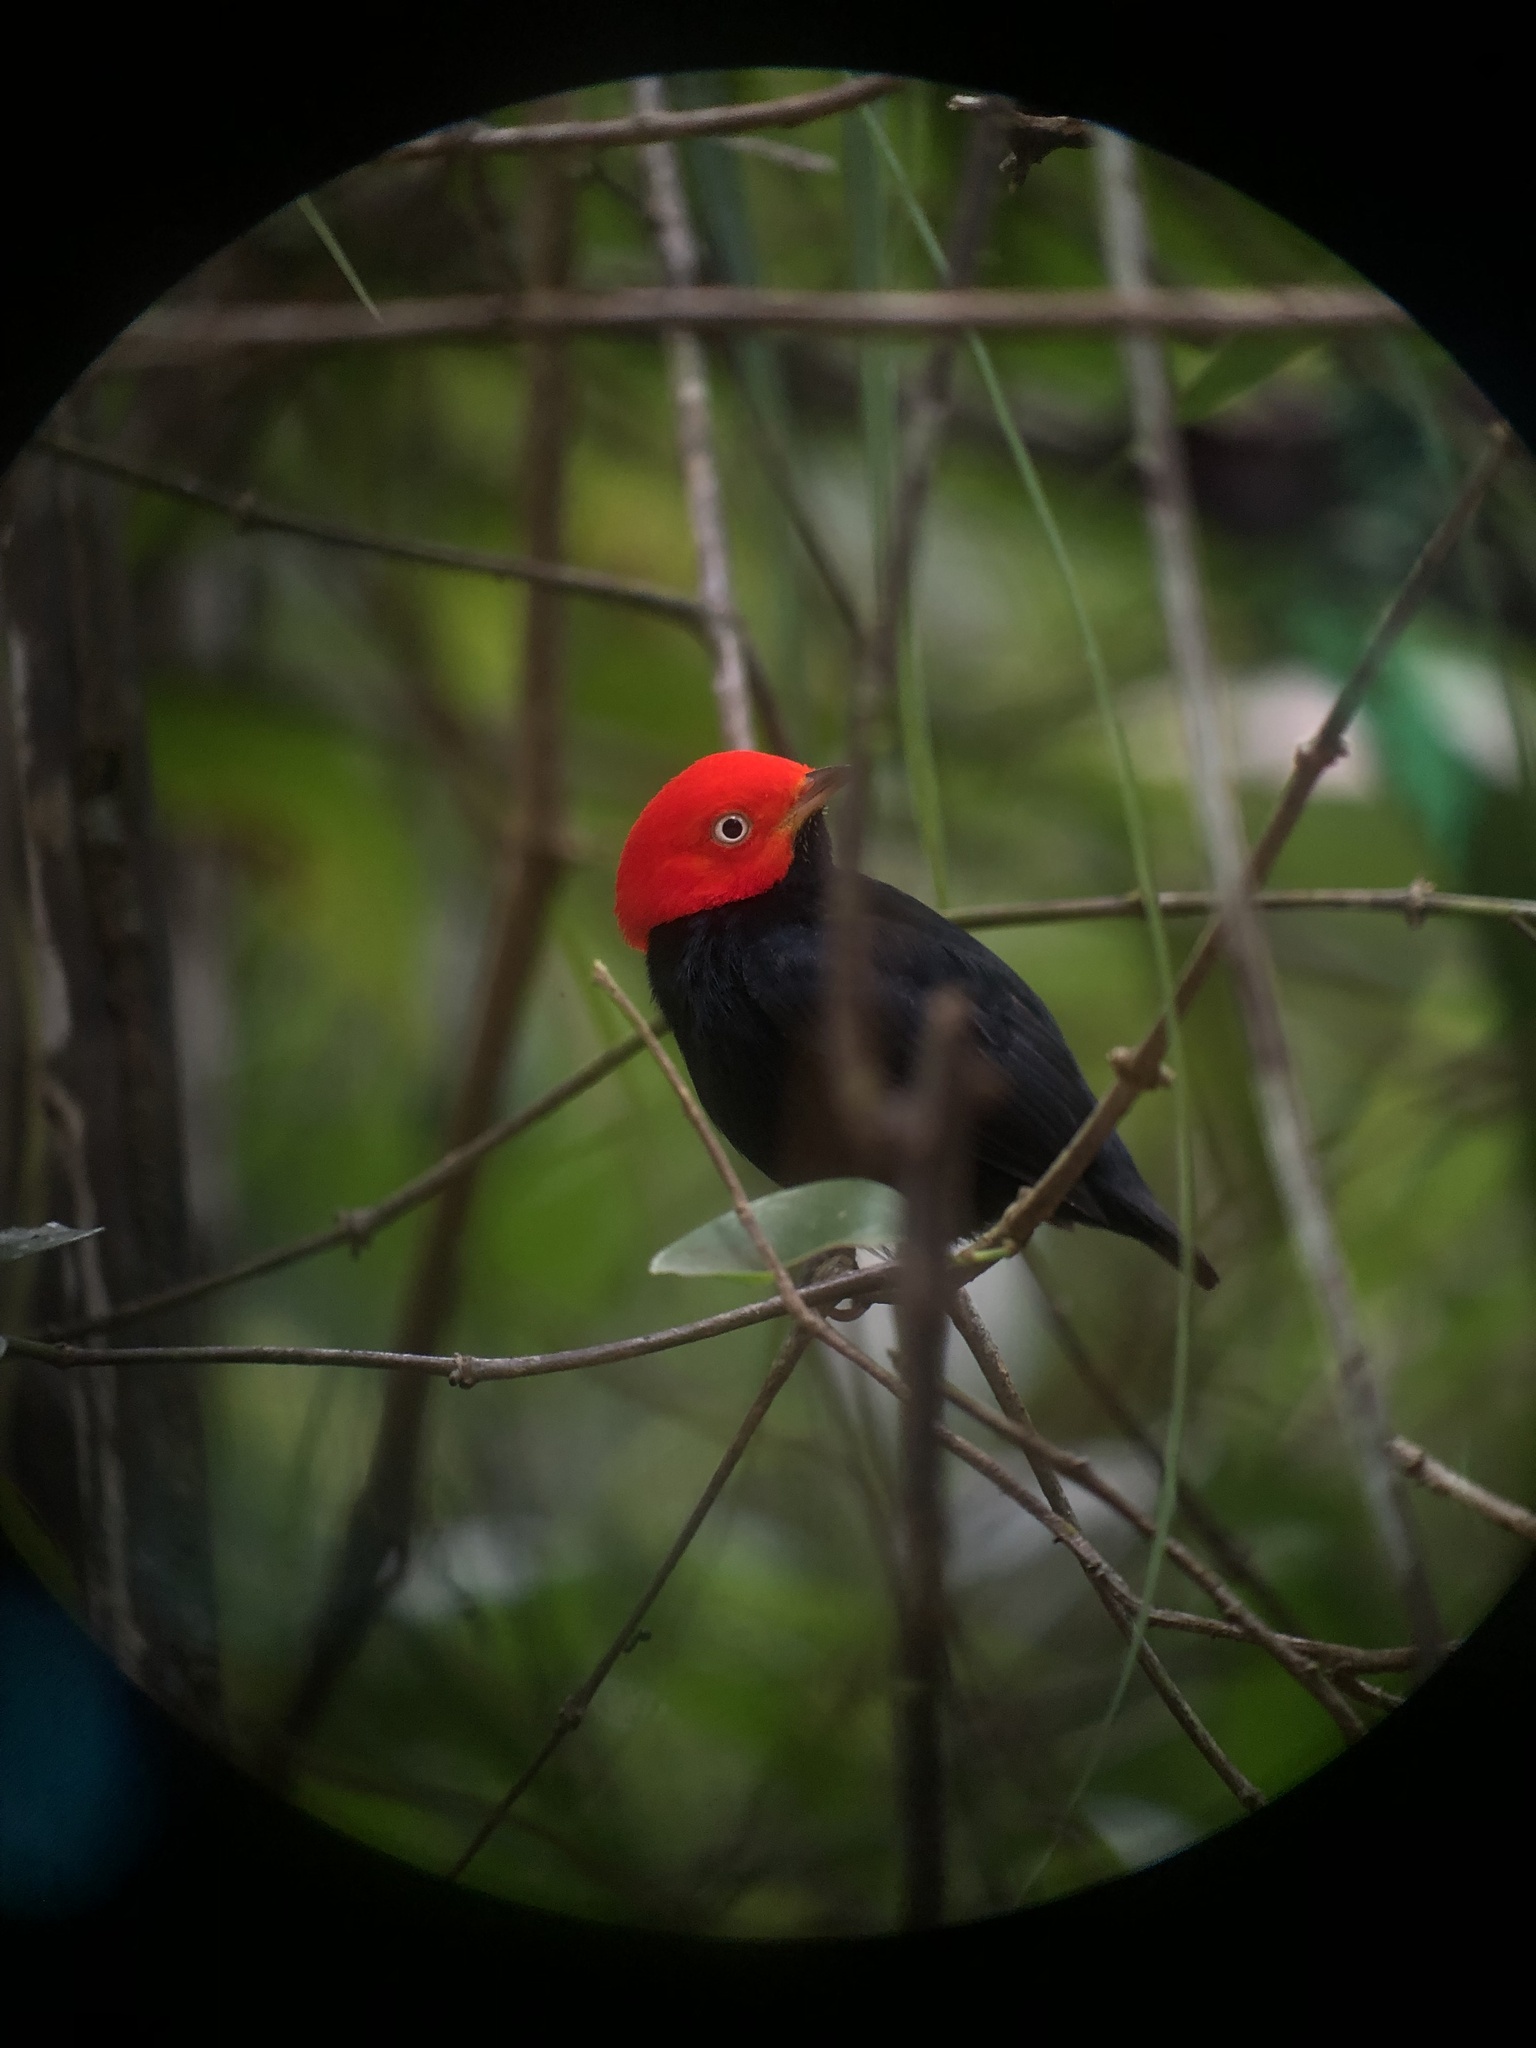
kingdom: Animalia
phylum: Chordata
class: Aves
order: Passeriformes
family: Pipridae
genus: Pipra
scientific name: Pipra mentalis
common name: Red-capped manakin
